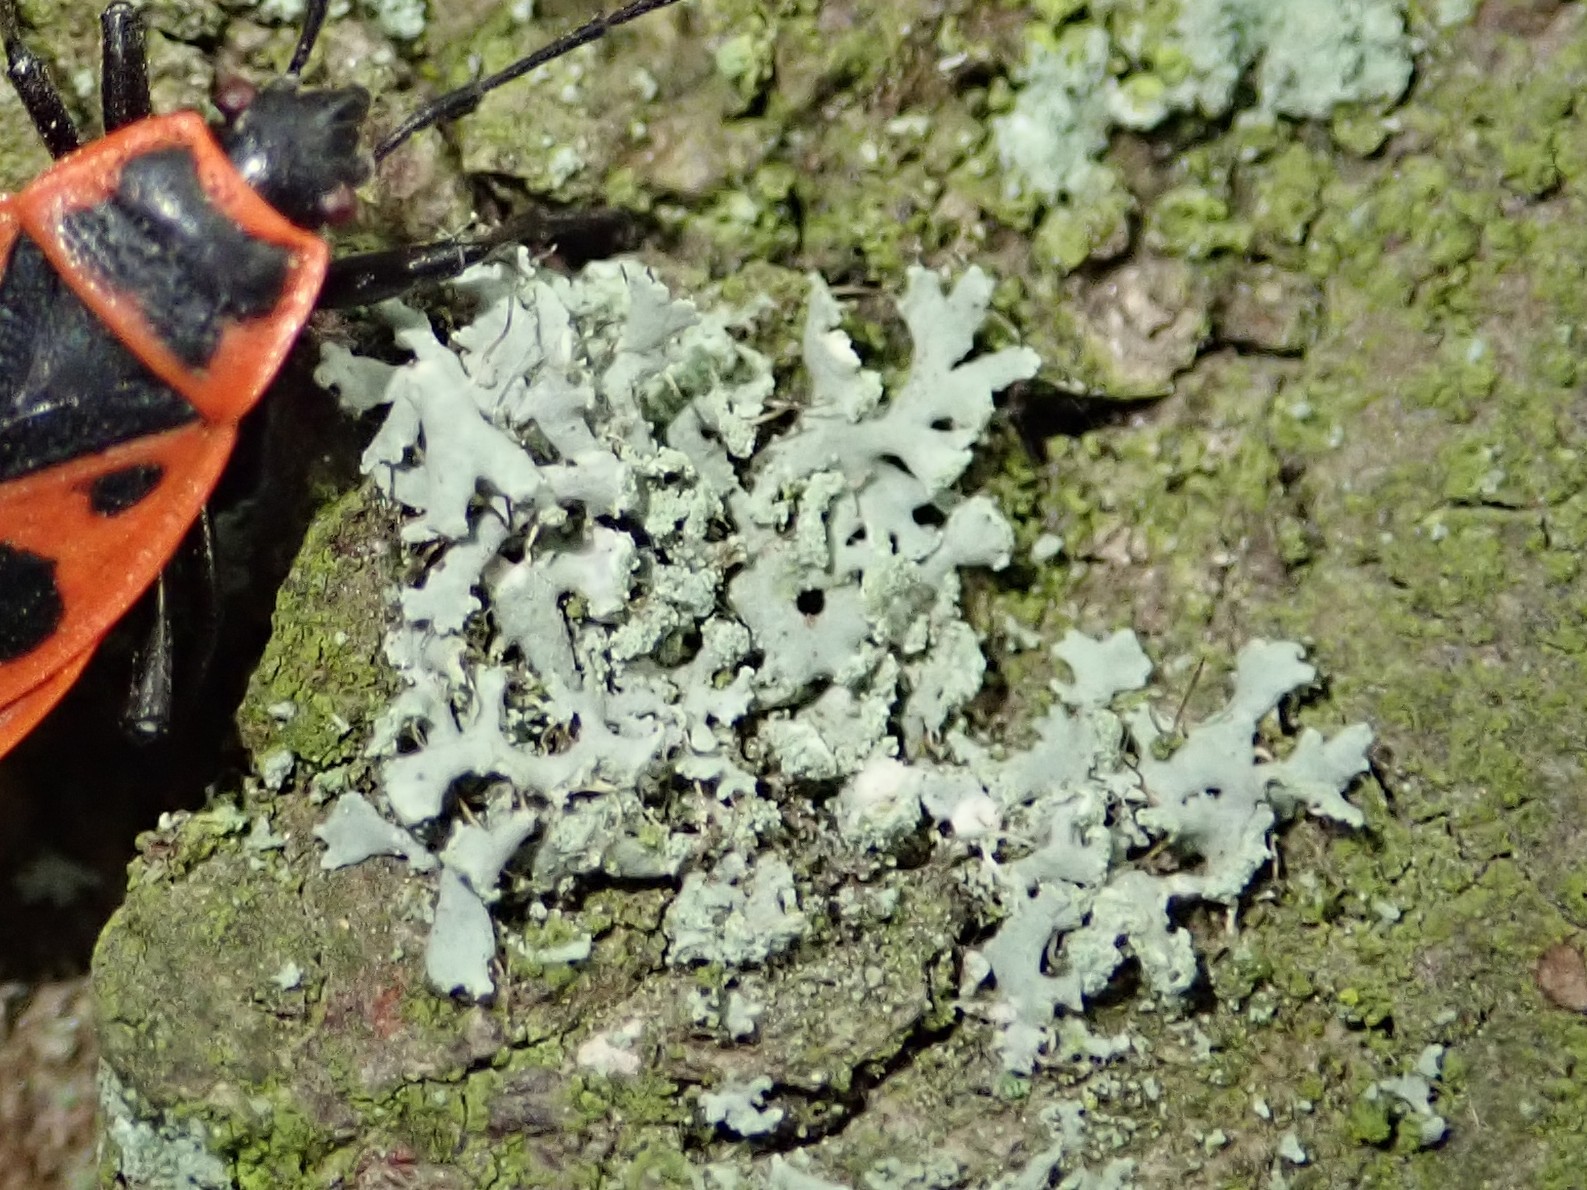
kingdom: Animalia
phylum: Arthropoda
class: Insecta
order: Hemiptera
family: Pyrrhocoridae
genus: Pyrrhocoris
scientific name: Pyrrhocoris apterus
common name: Firebug
